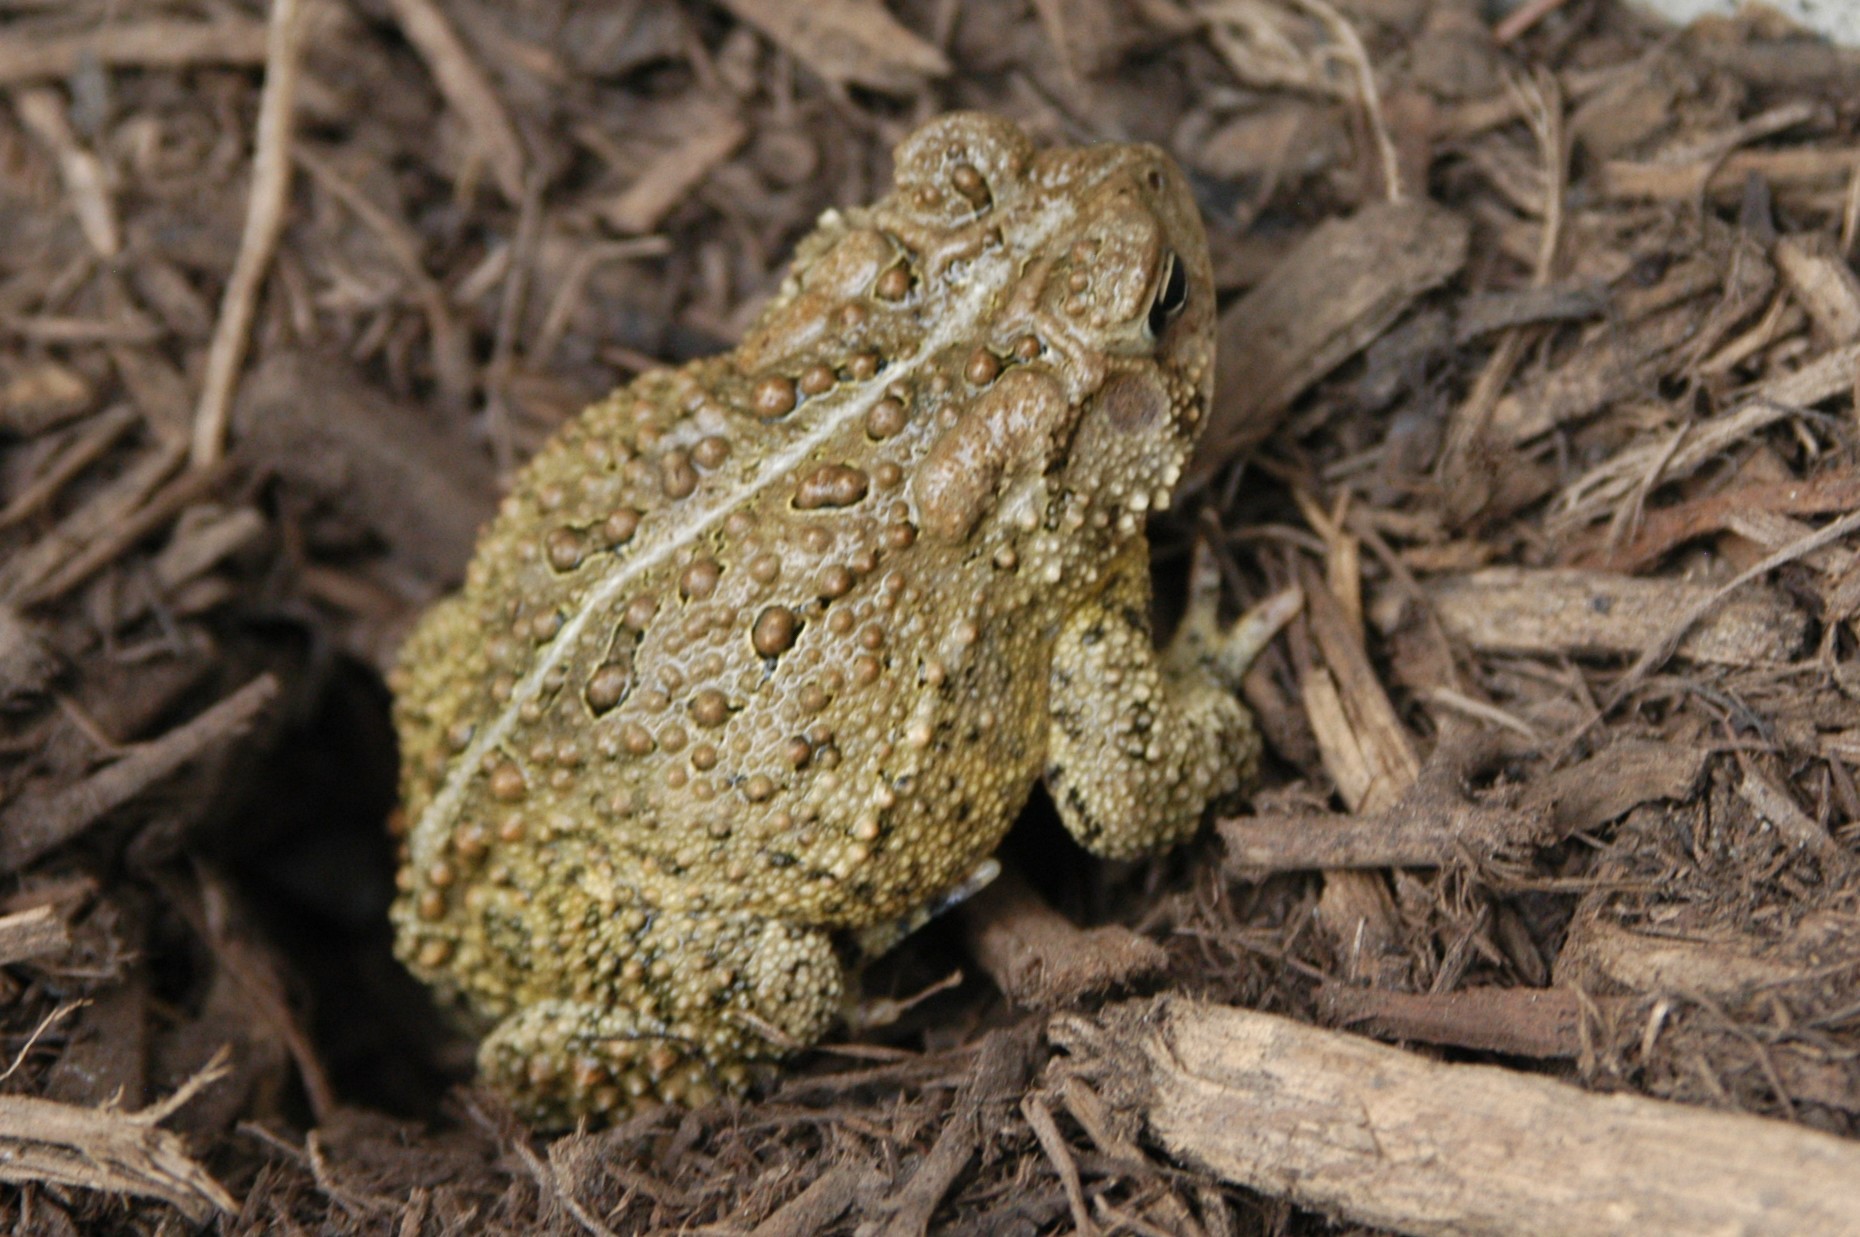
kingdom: Animalia
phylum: Chordata
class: Amphibia
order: Anura
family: Bufonidae
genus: Anaxyrus
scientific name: Anaxyrus americanus
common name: American toad
